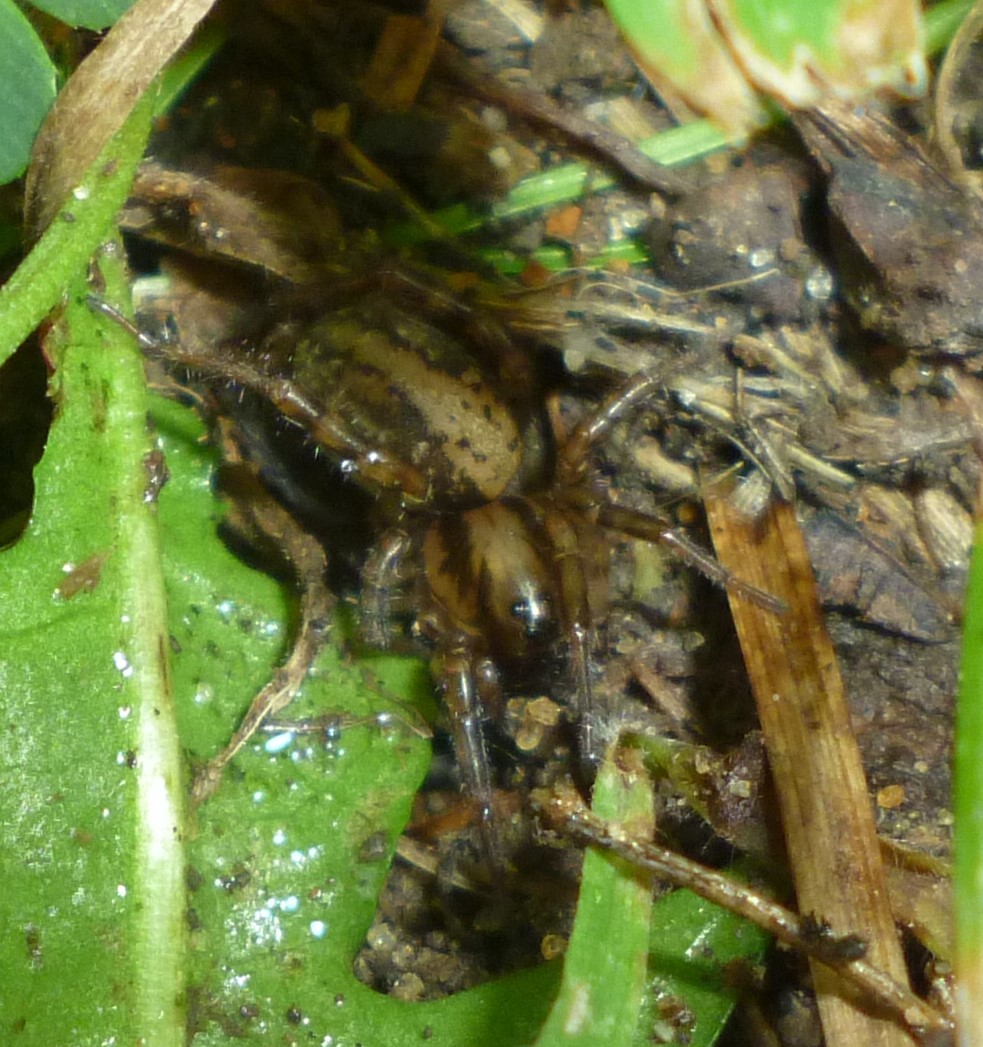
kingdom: Animalia
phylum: Arthropoda
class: Arachnida
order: Araneae
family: Lycosidae
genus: Allocosa
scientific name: Allocosa absoluta
